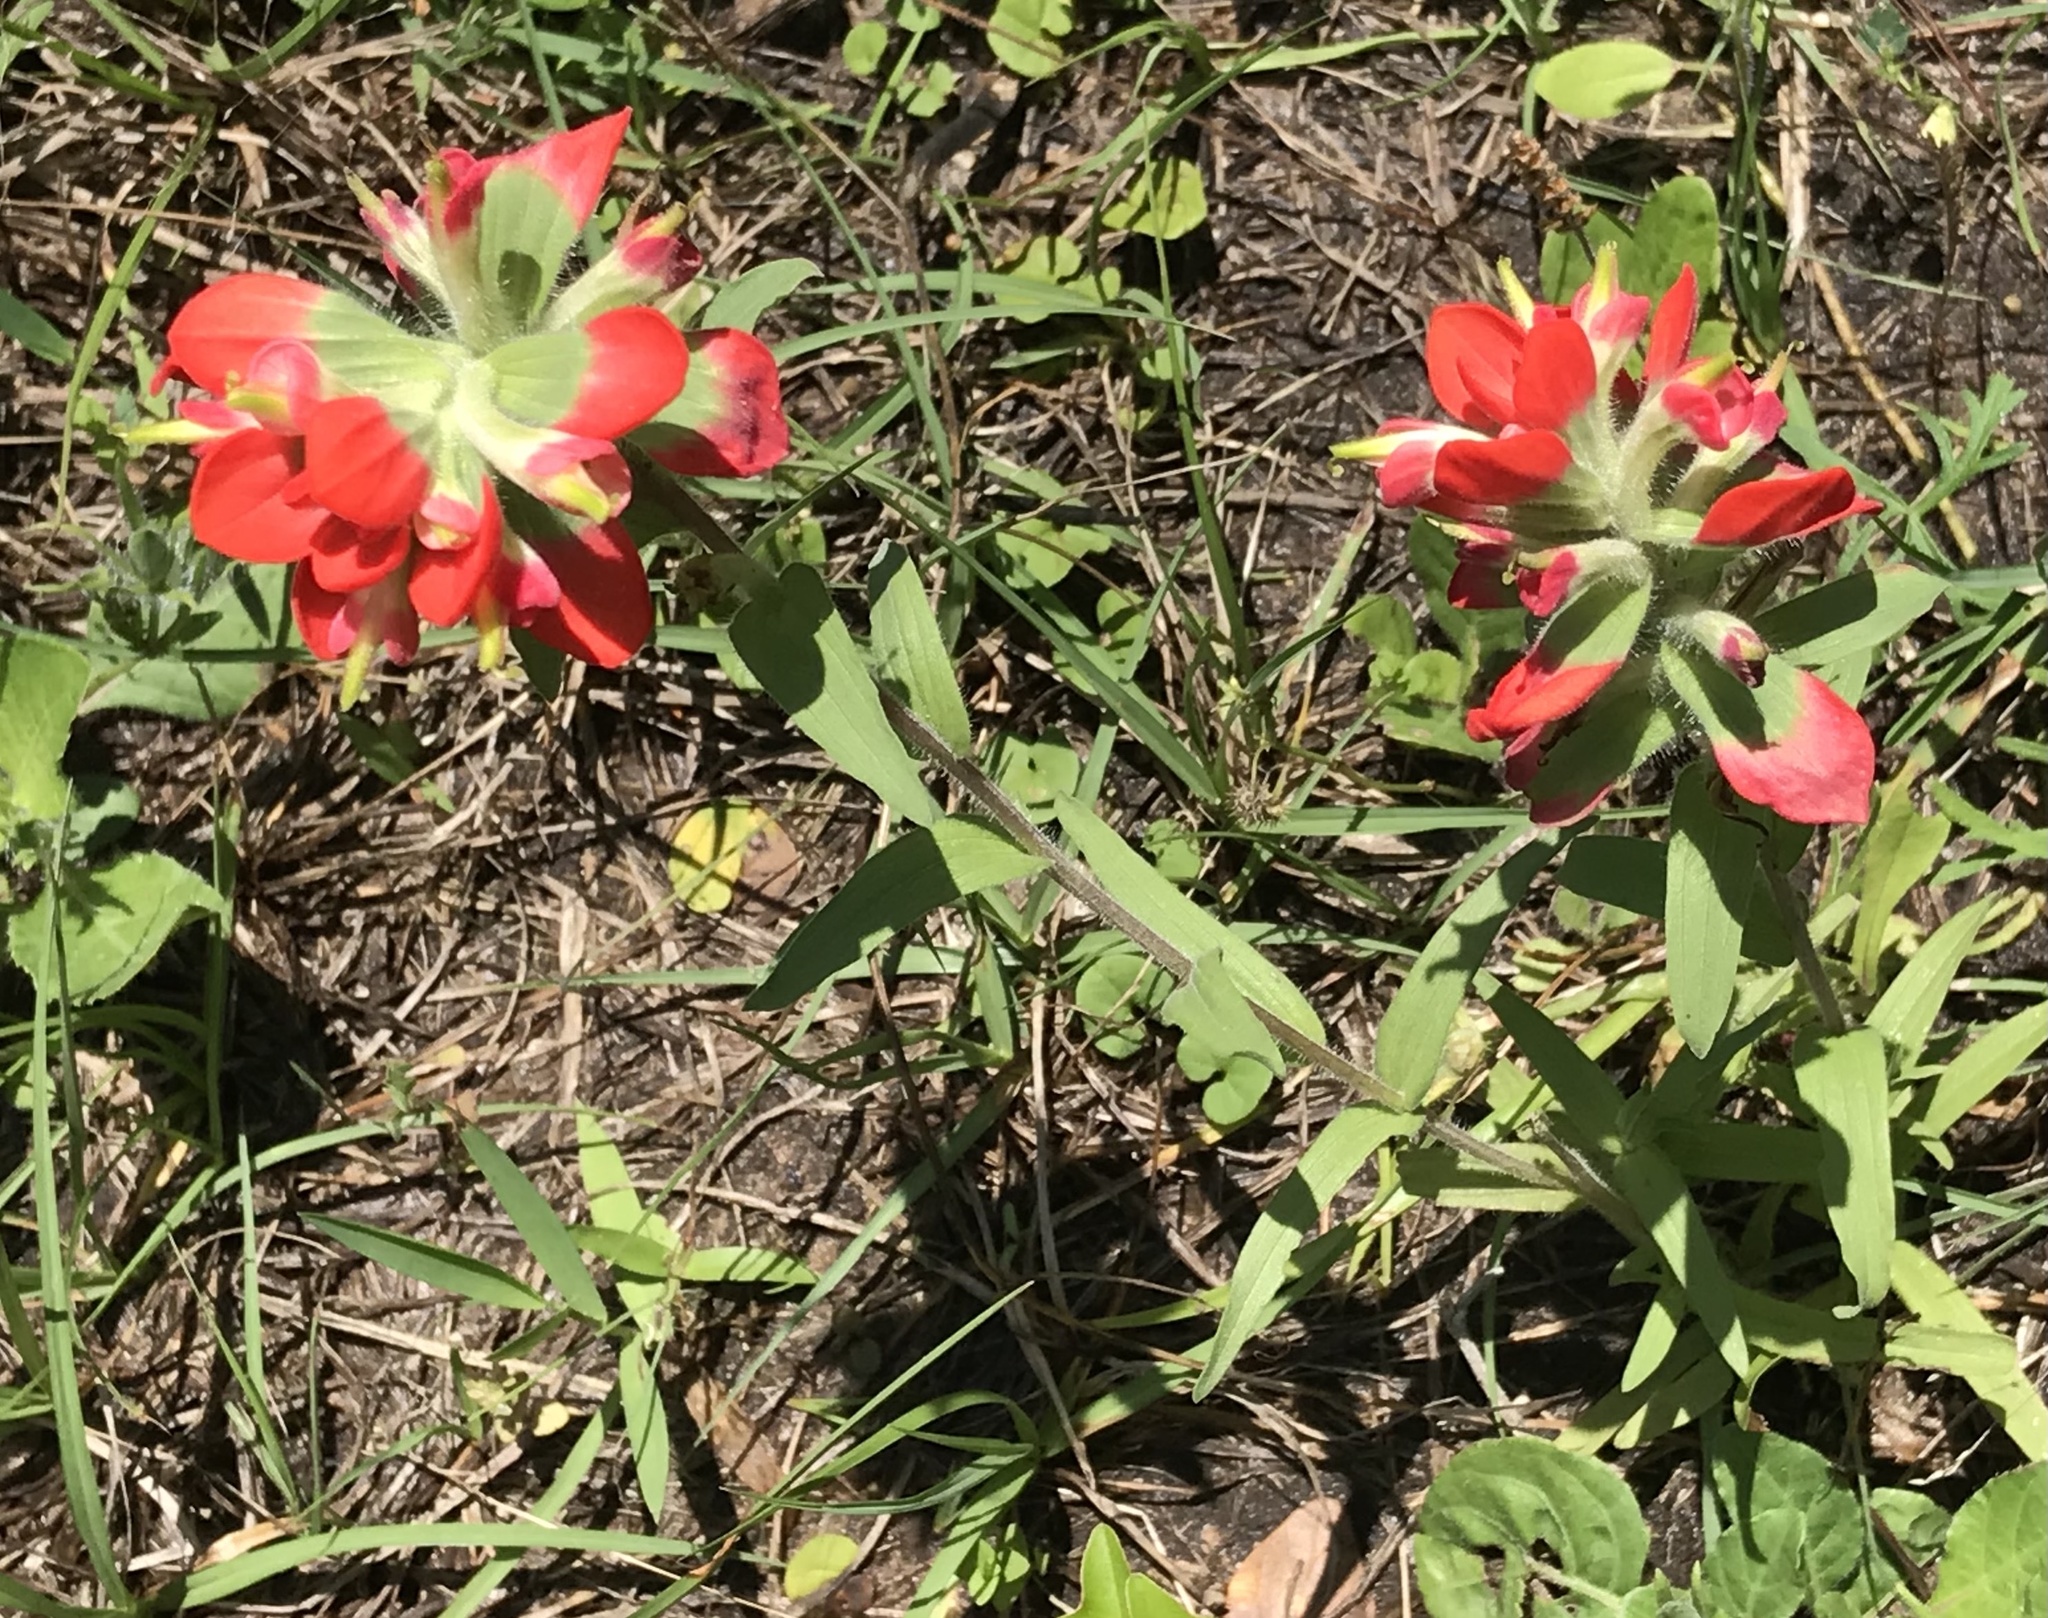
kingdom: Plantae
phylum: Tracheophyta
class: Magnoliopsida
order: Lamiales
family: Orobanchaceae
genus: Castilleja
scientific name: Castilleja indivisa
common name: Texas paintbrush
